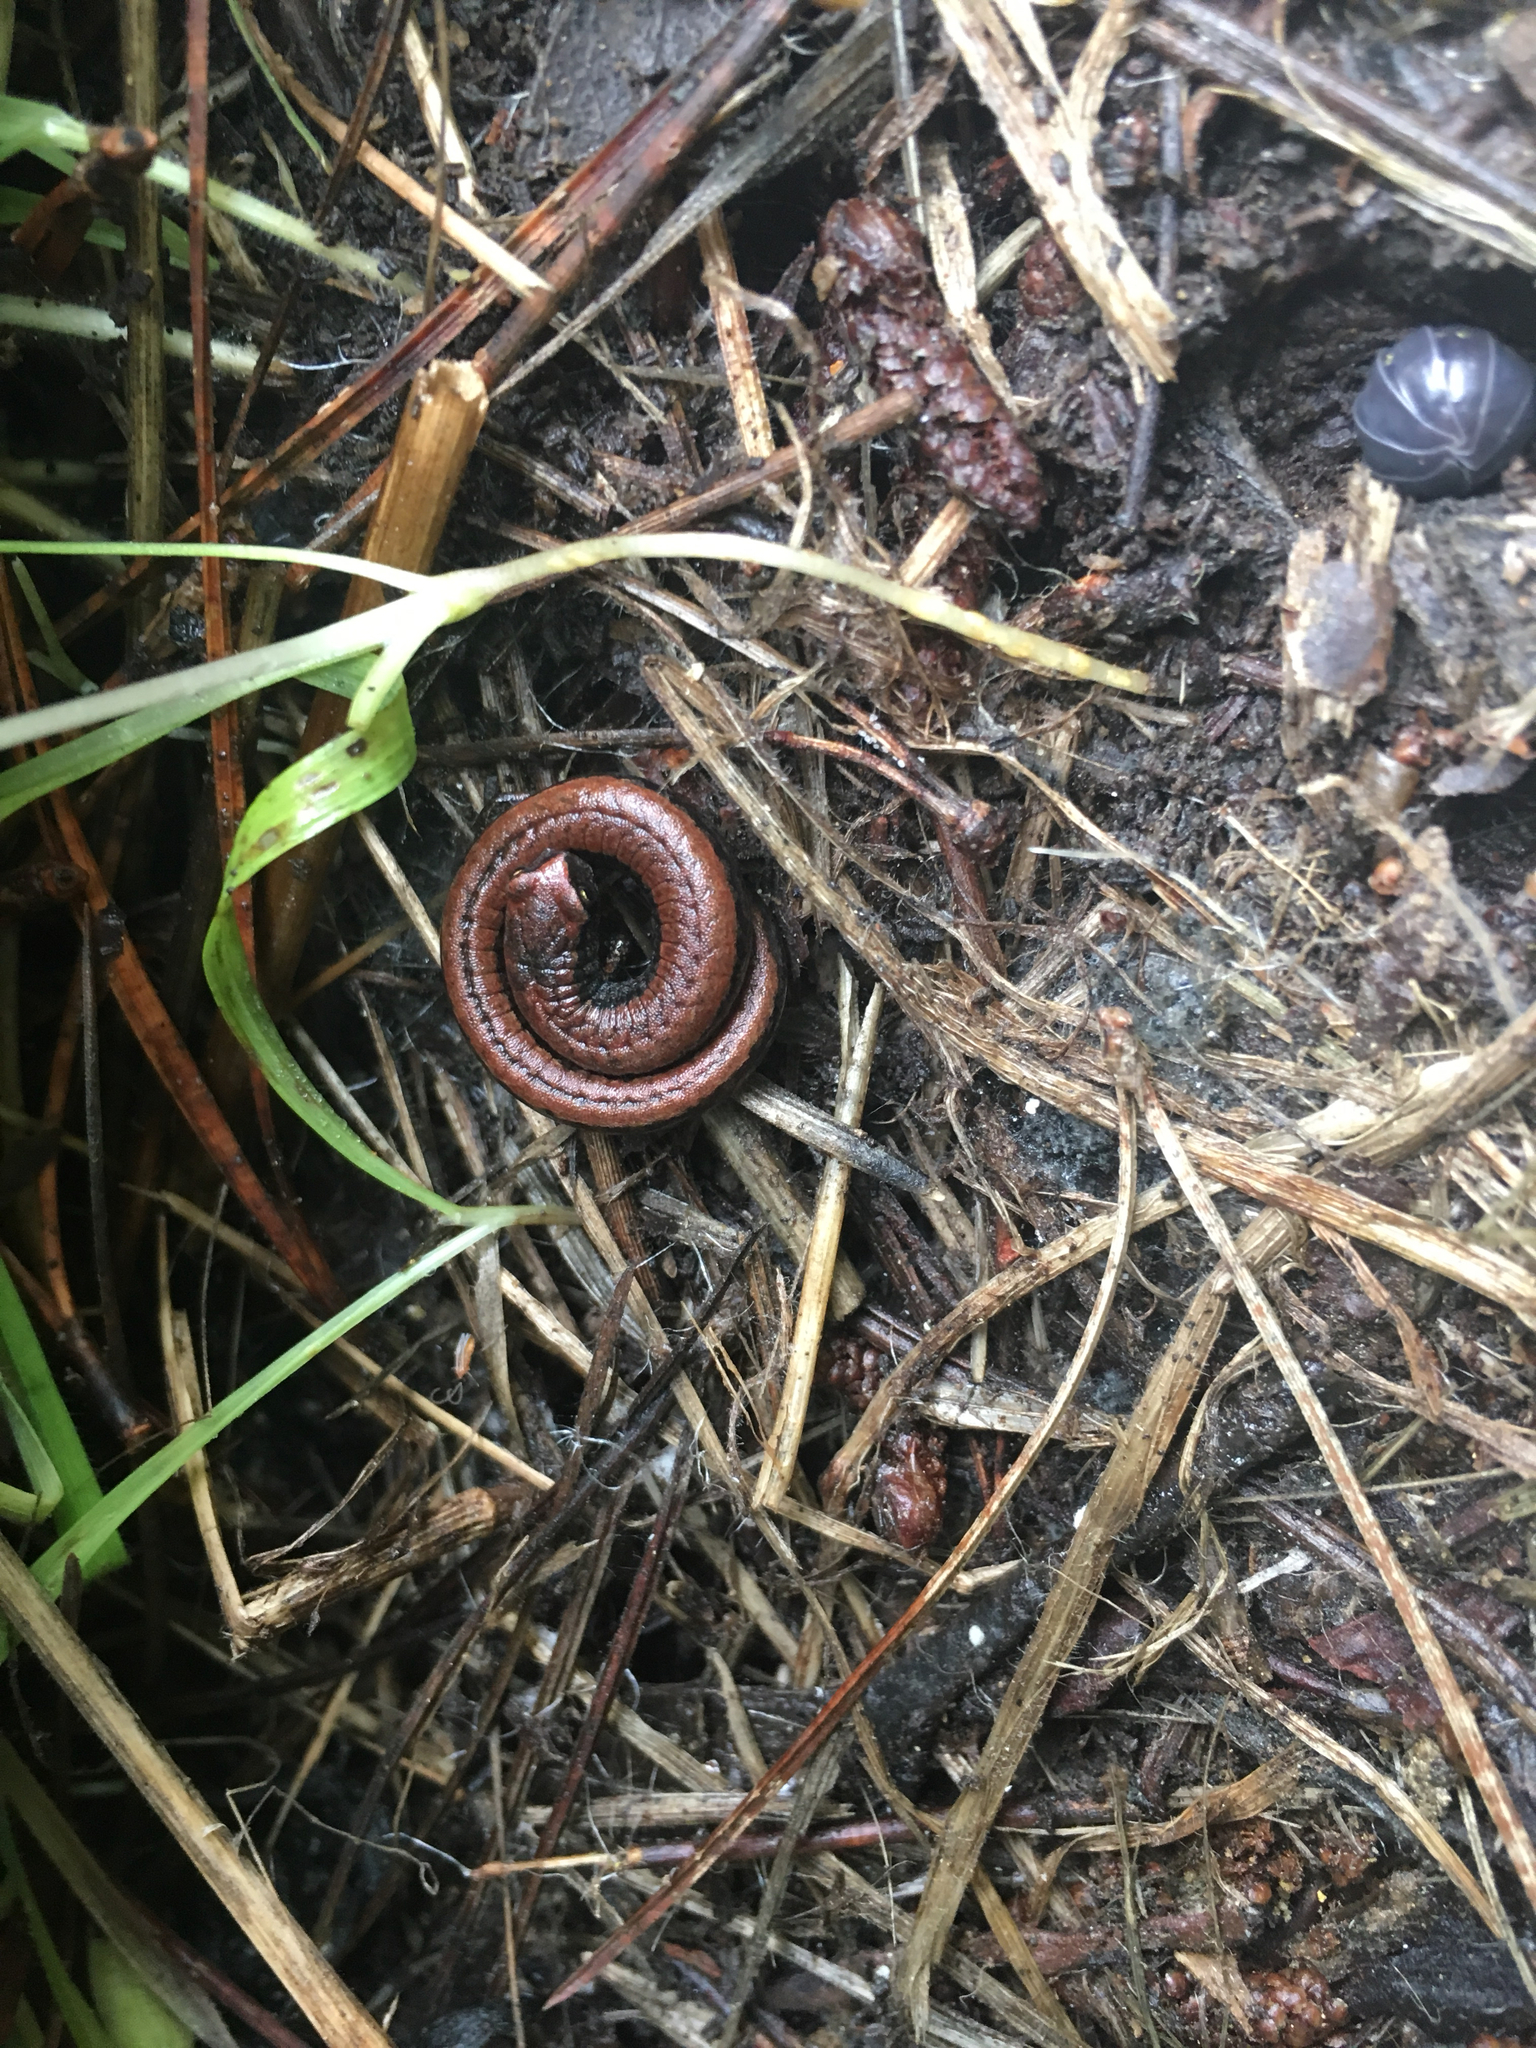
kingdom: Animalia
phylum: Chordata
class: Amphibia
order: Caudata
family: Plethodontidae
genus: Batrachoseps
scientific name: Batrachoseps attenuatus
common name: California slender salamander
